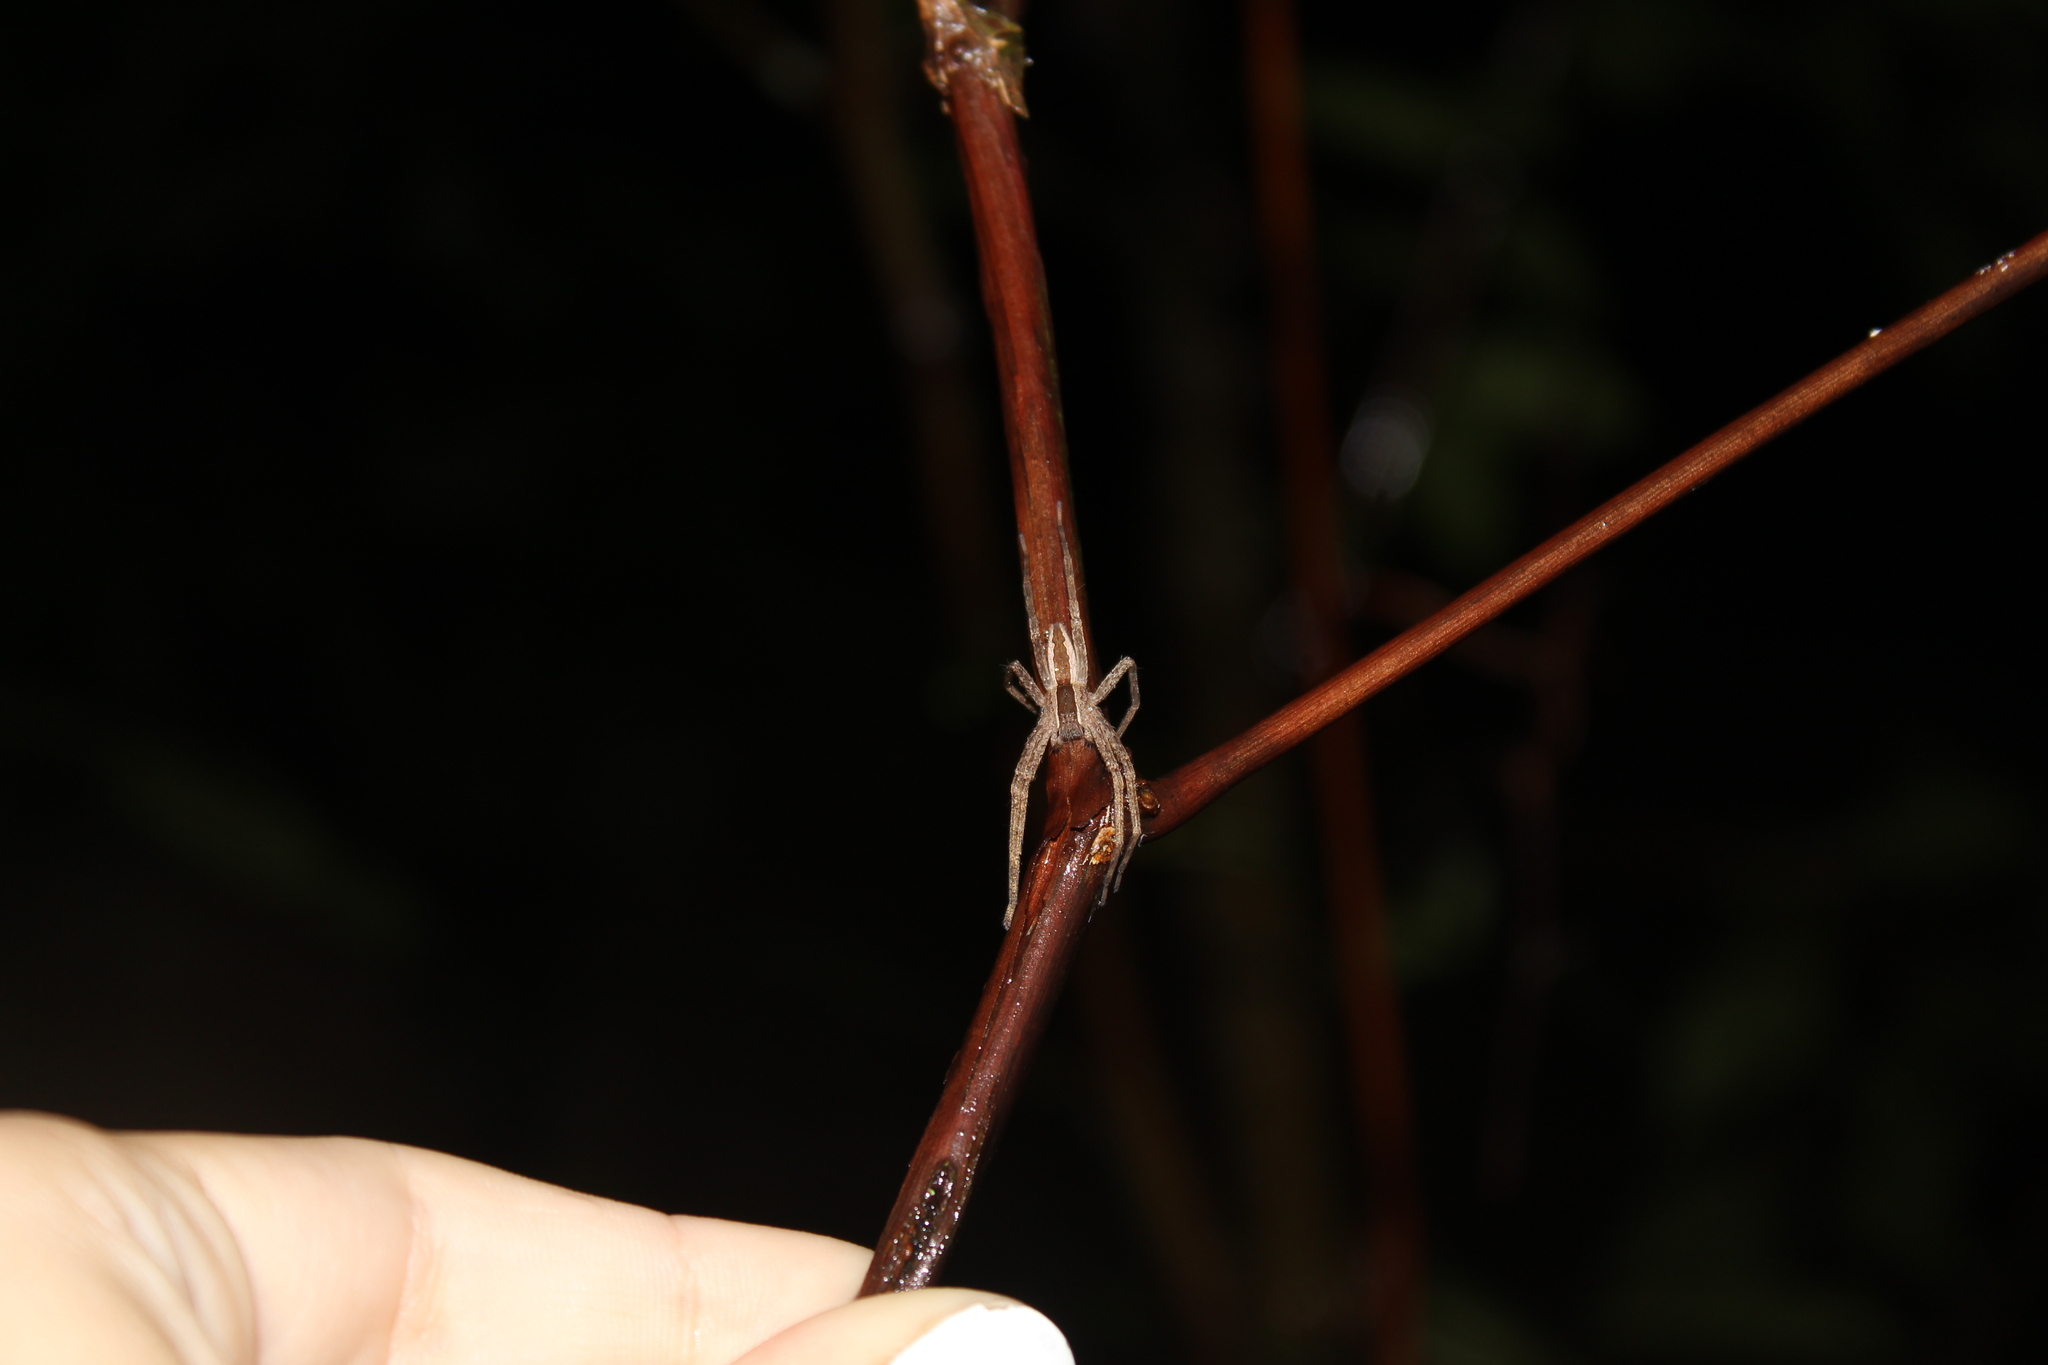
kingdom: Animalia
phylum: Arthropoda
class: Arachnida
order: Araneae
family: Pisauridae
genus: Pisaurina
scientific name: Pisaurina mira
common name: American nursery web spider
